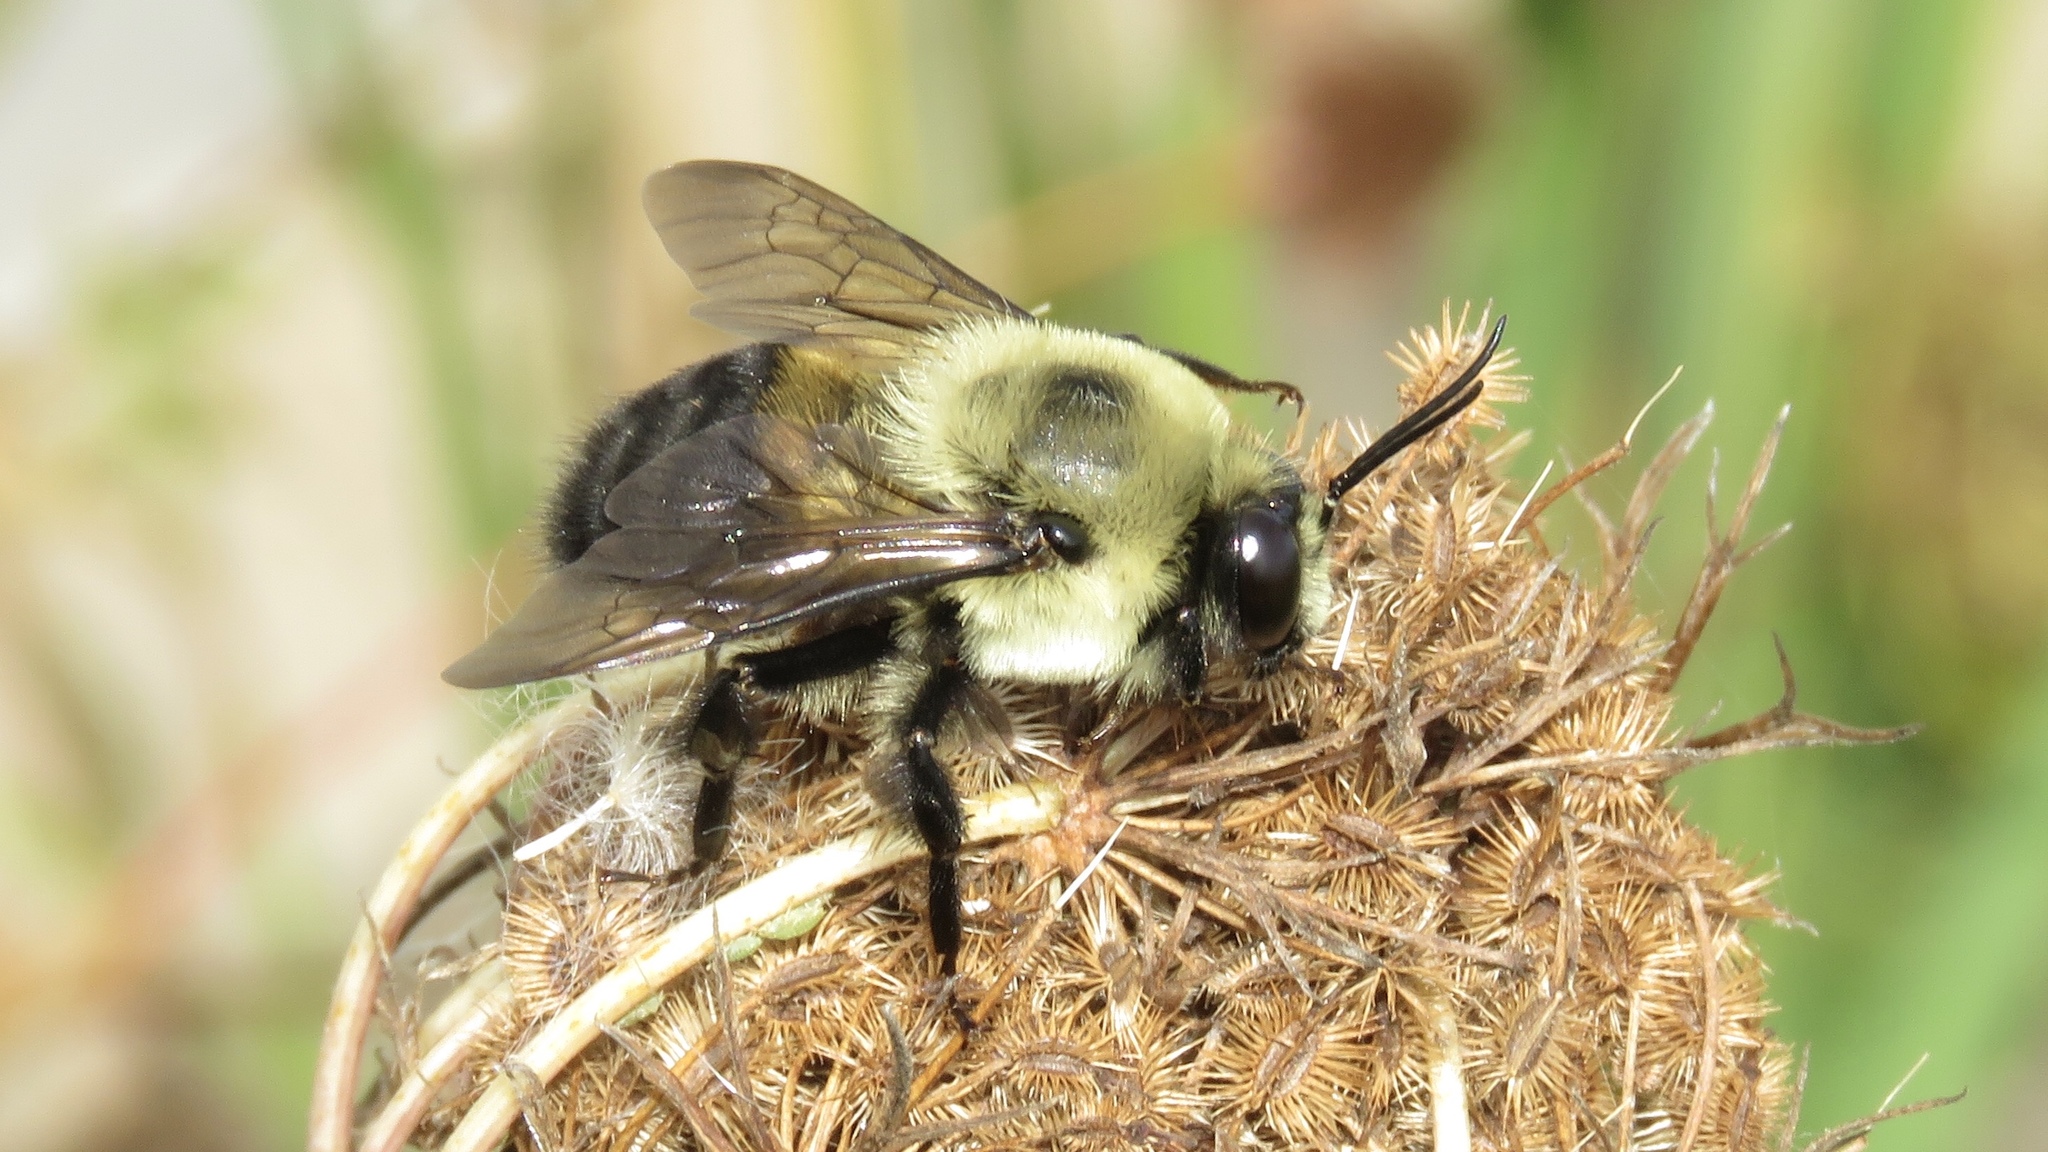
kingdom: Animalia
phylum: Arthropoda
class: Insecta
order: Hymenoptera
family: Apidae
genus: Bombus
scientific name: Bombus griseocollis
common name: Brown-belted bumble bee
